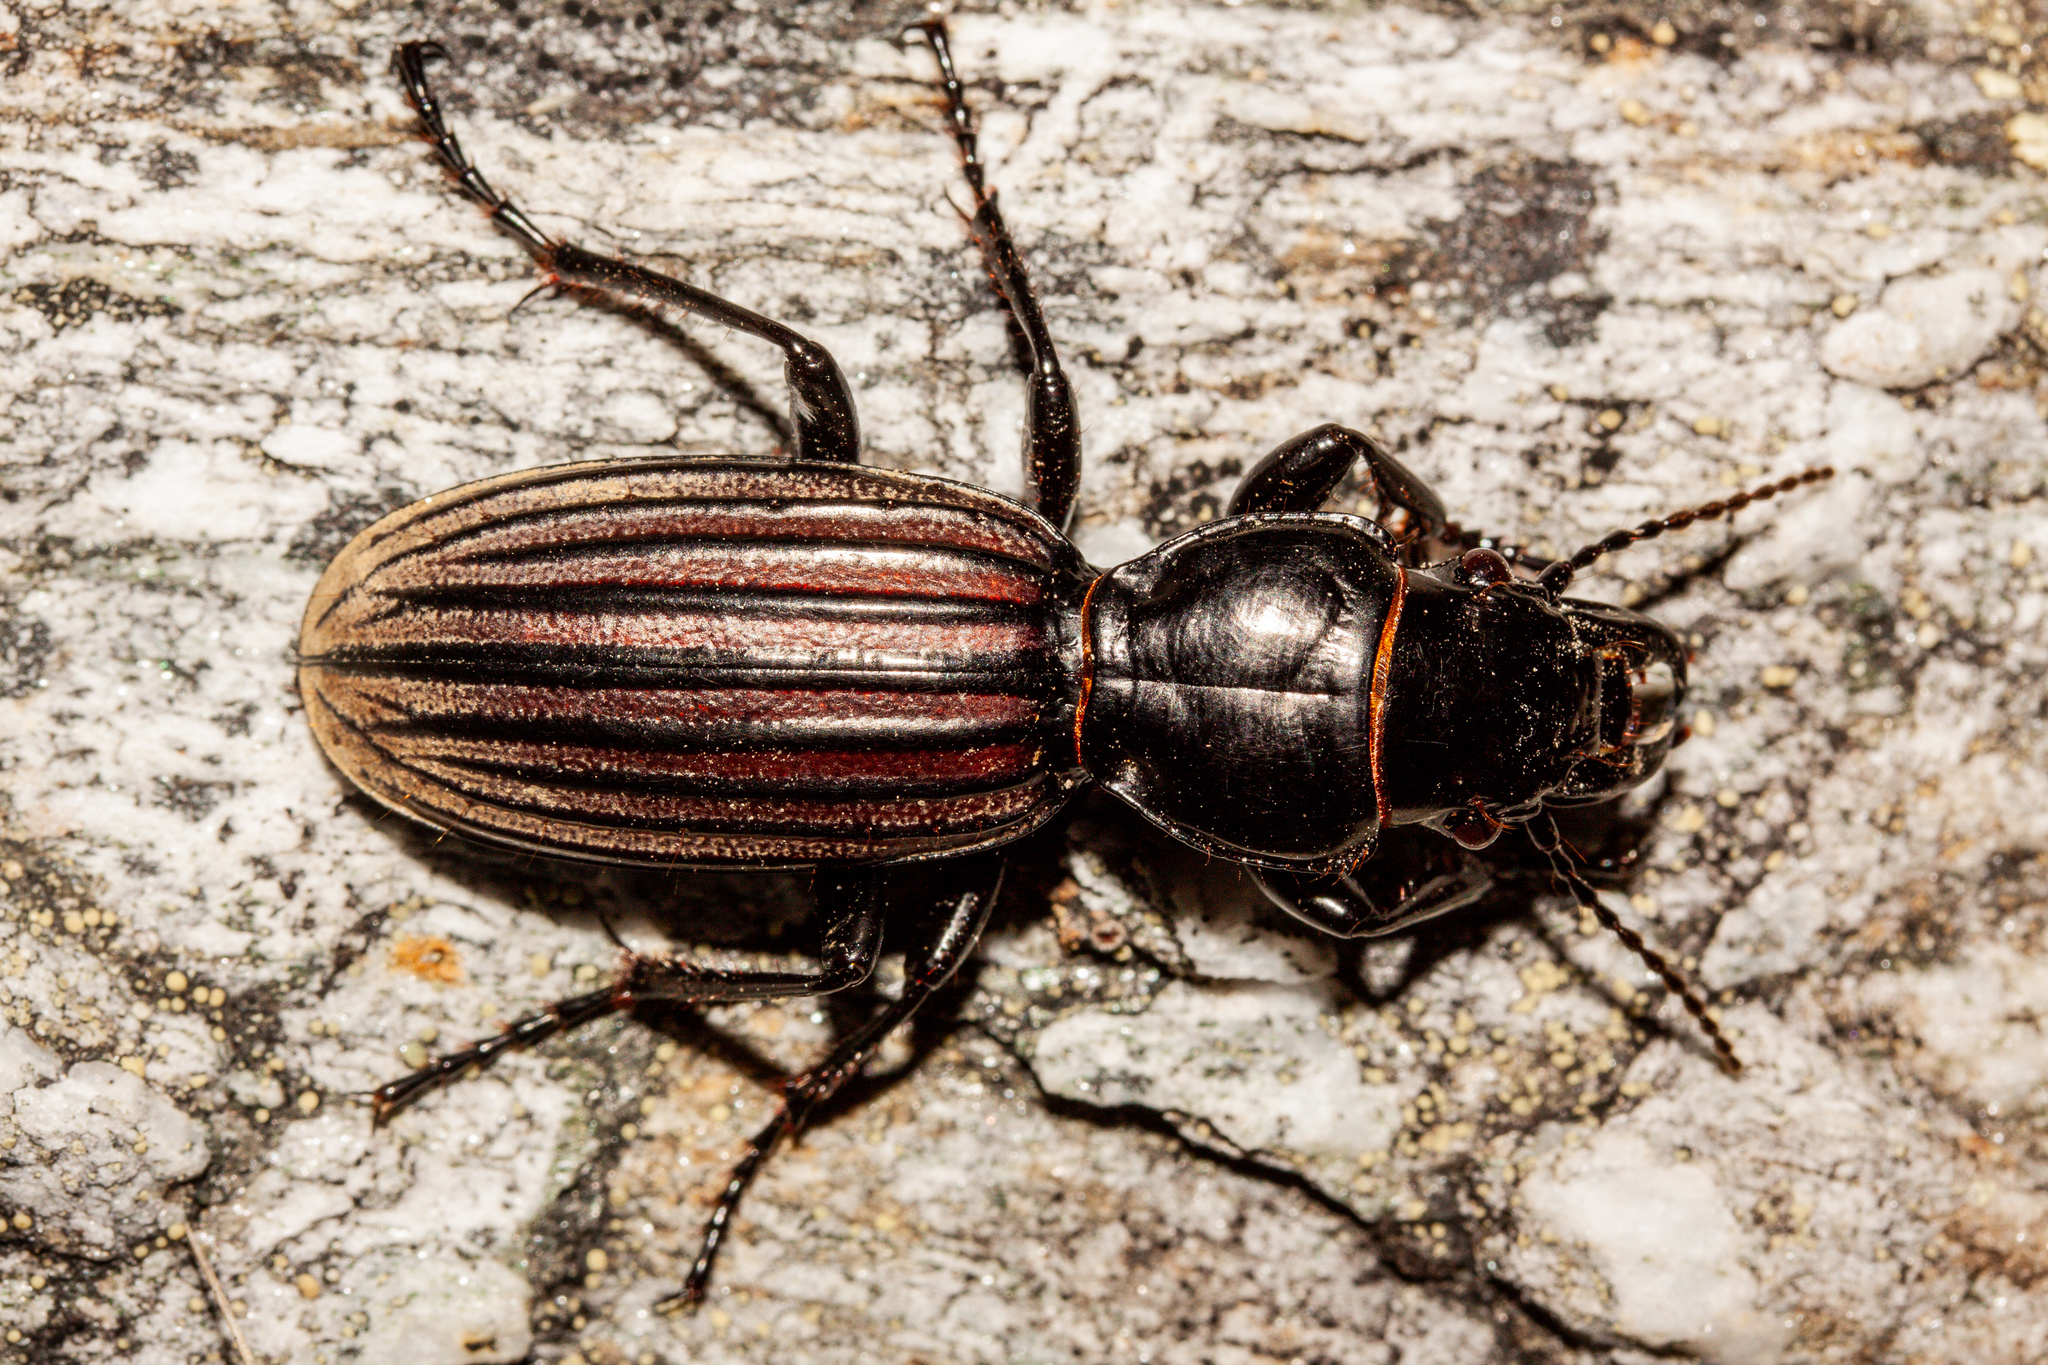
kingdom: Animalia
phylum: Arthropoda
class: Insecta
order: Coleoptera
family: Carabidae
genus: Mecodema
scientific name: Mecodema chiltoni
